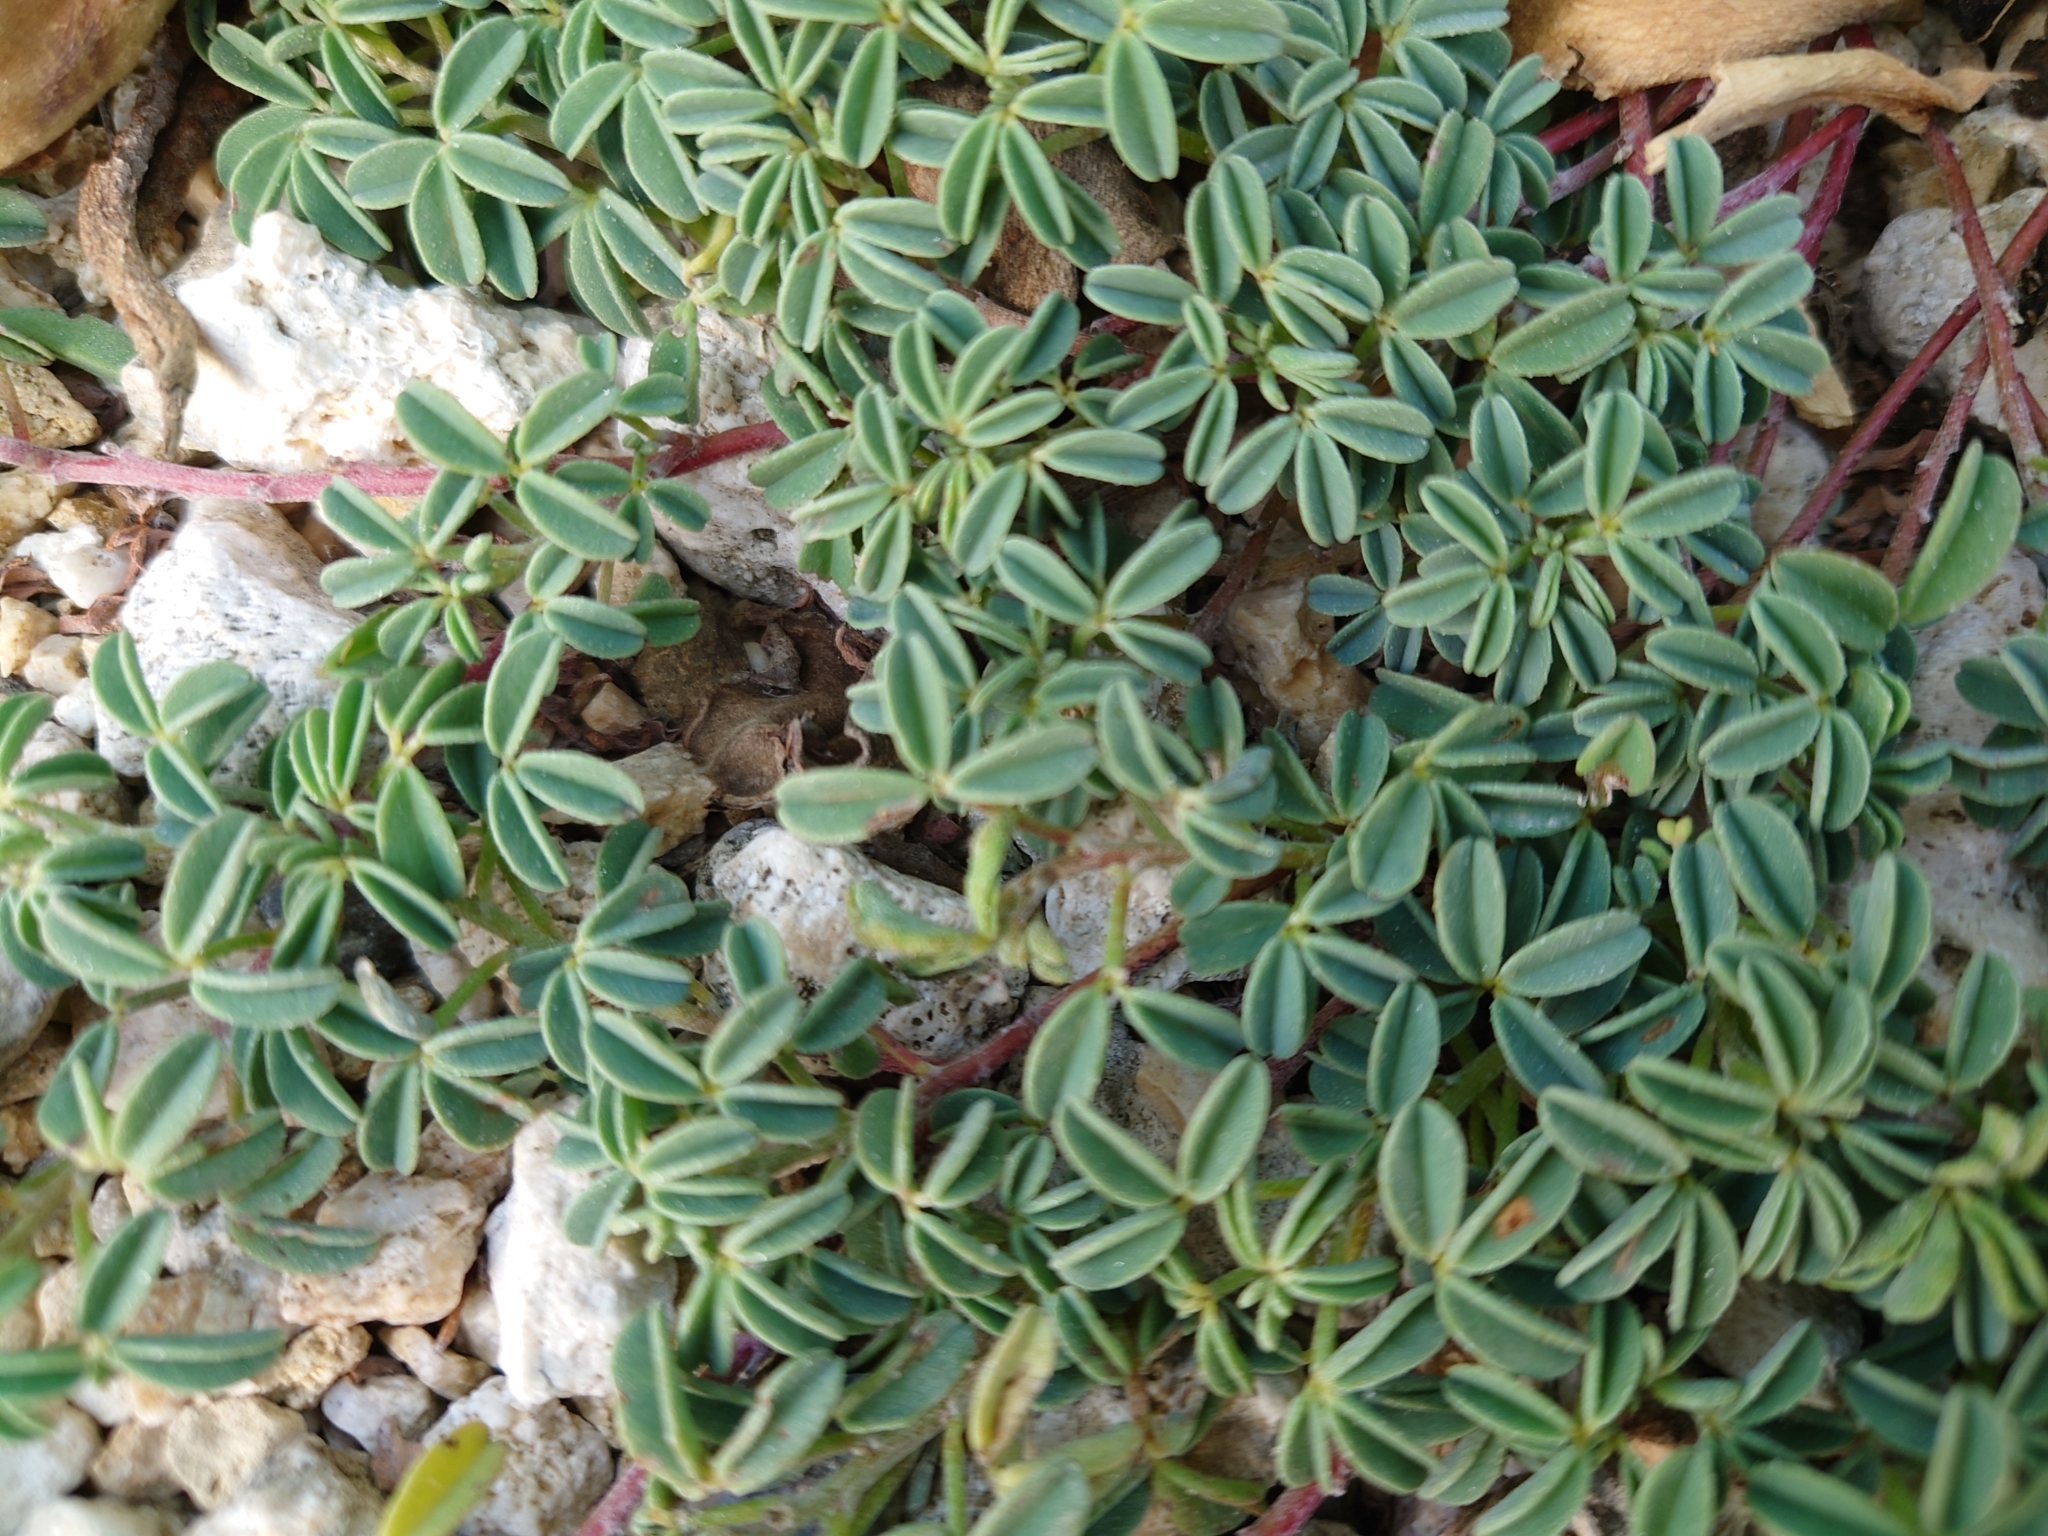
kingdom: Plantae
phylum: Tracheophyta
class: Magnoliopsida
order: Fabales
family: Fabaceae
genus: Indigofera
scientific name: Indigofera trifoliata
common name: Threeleaf indigo
